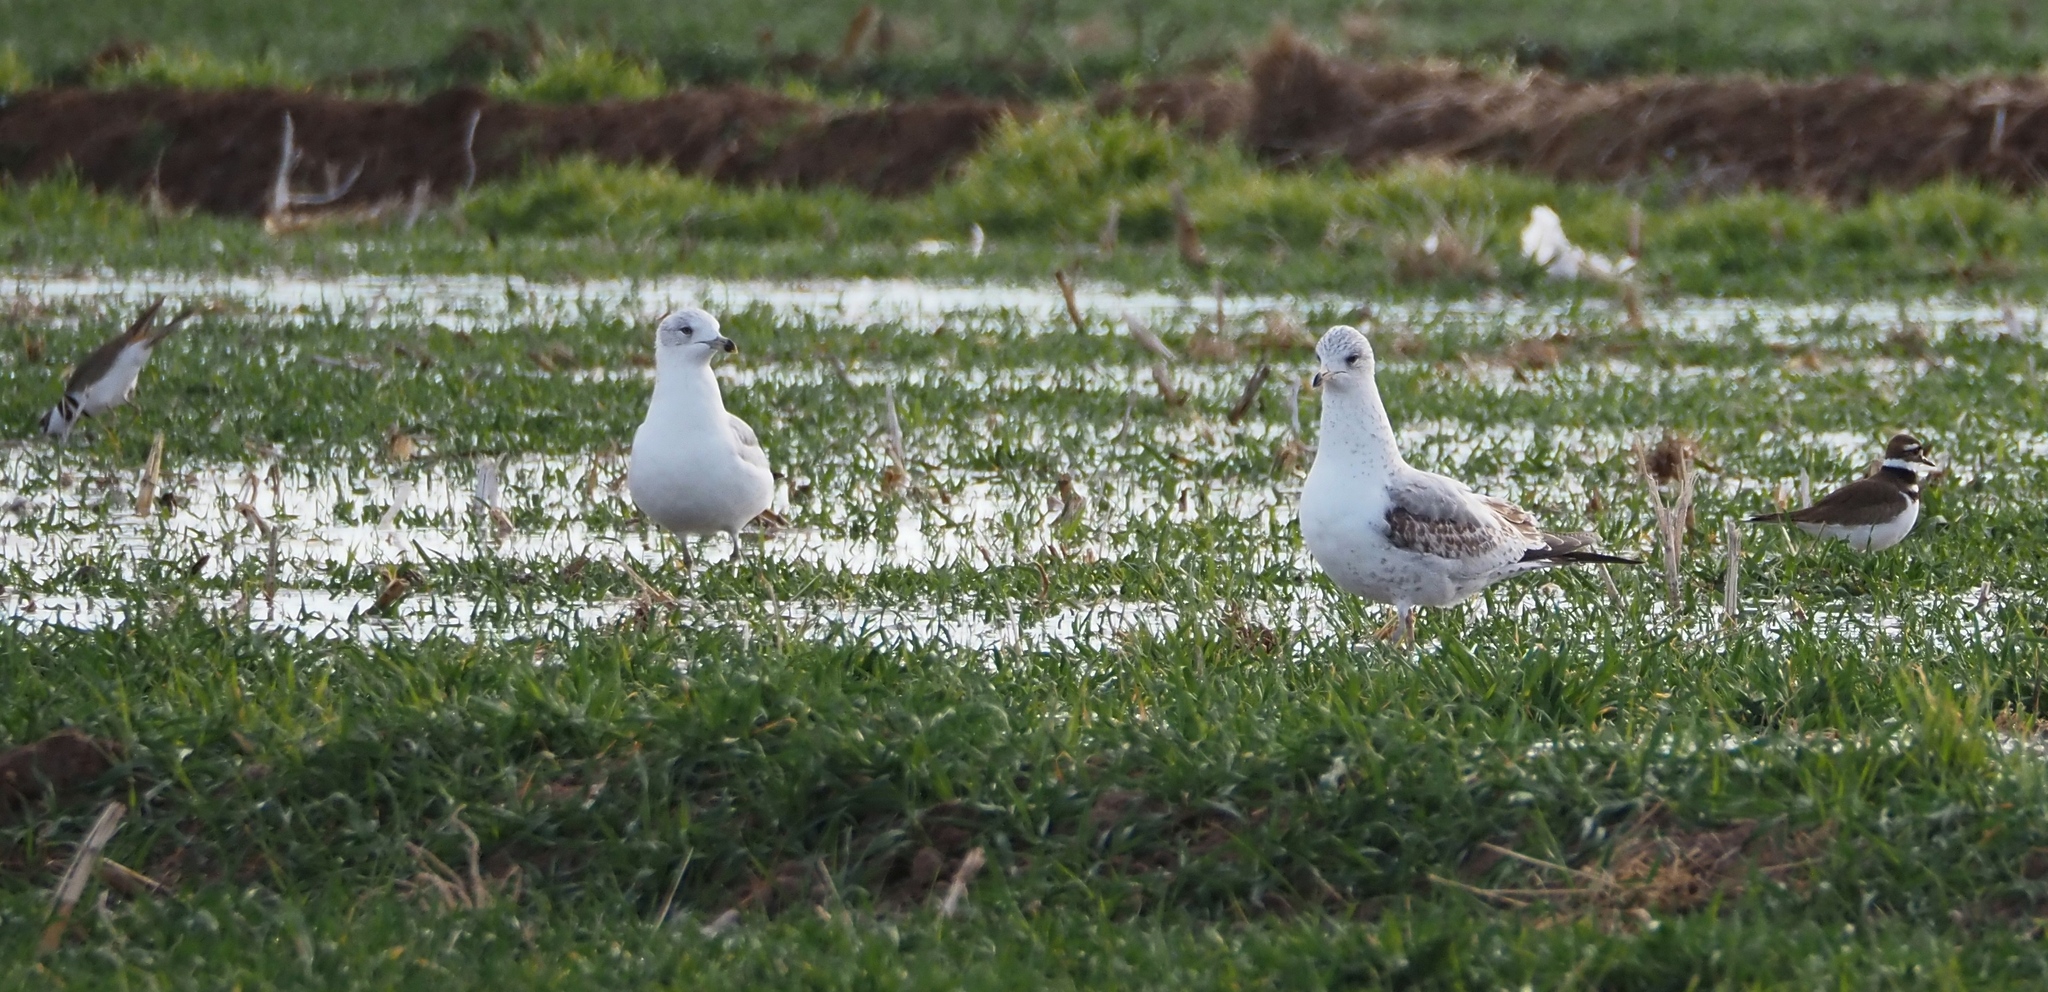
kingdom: Animalia
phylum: Chordata
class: Aves
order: Charadriiformes
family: Laridae
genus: Larus
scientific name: Larus delawarensis
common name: Ring-billed gull
